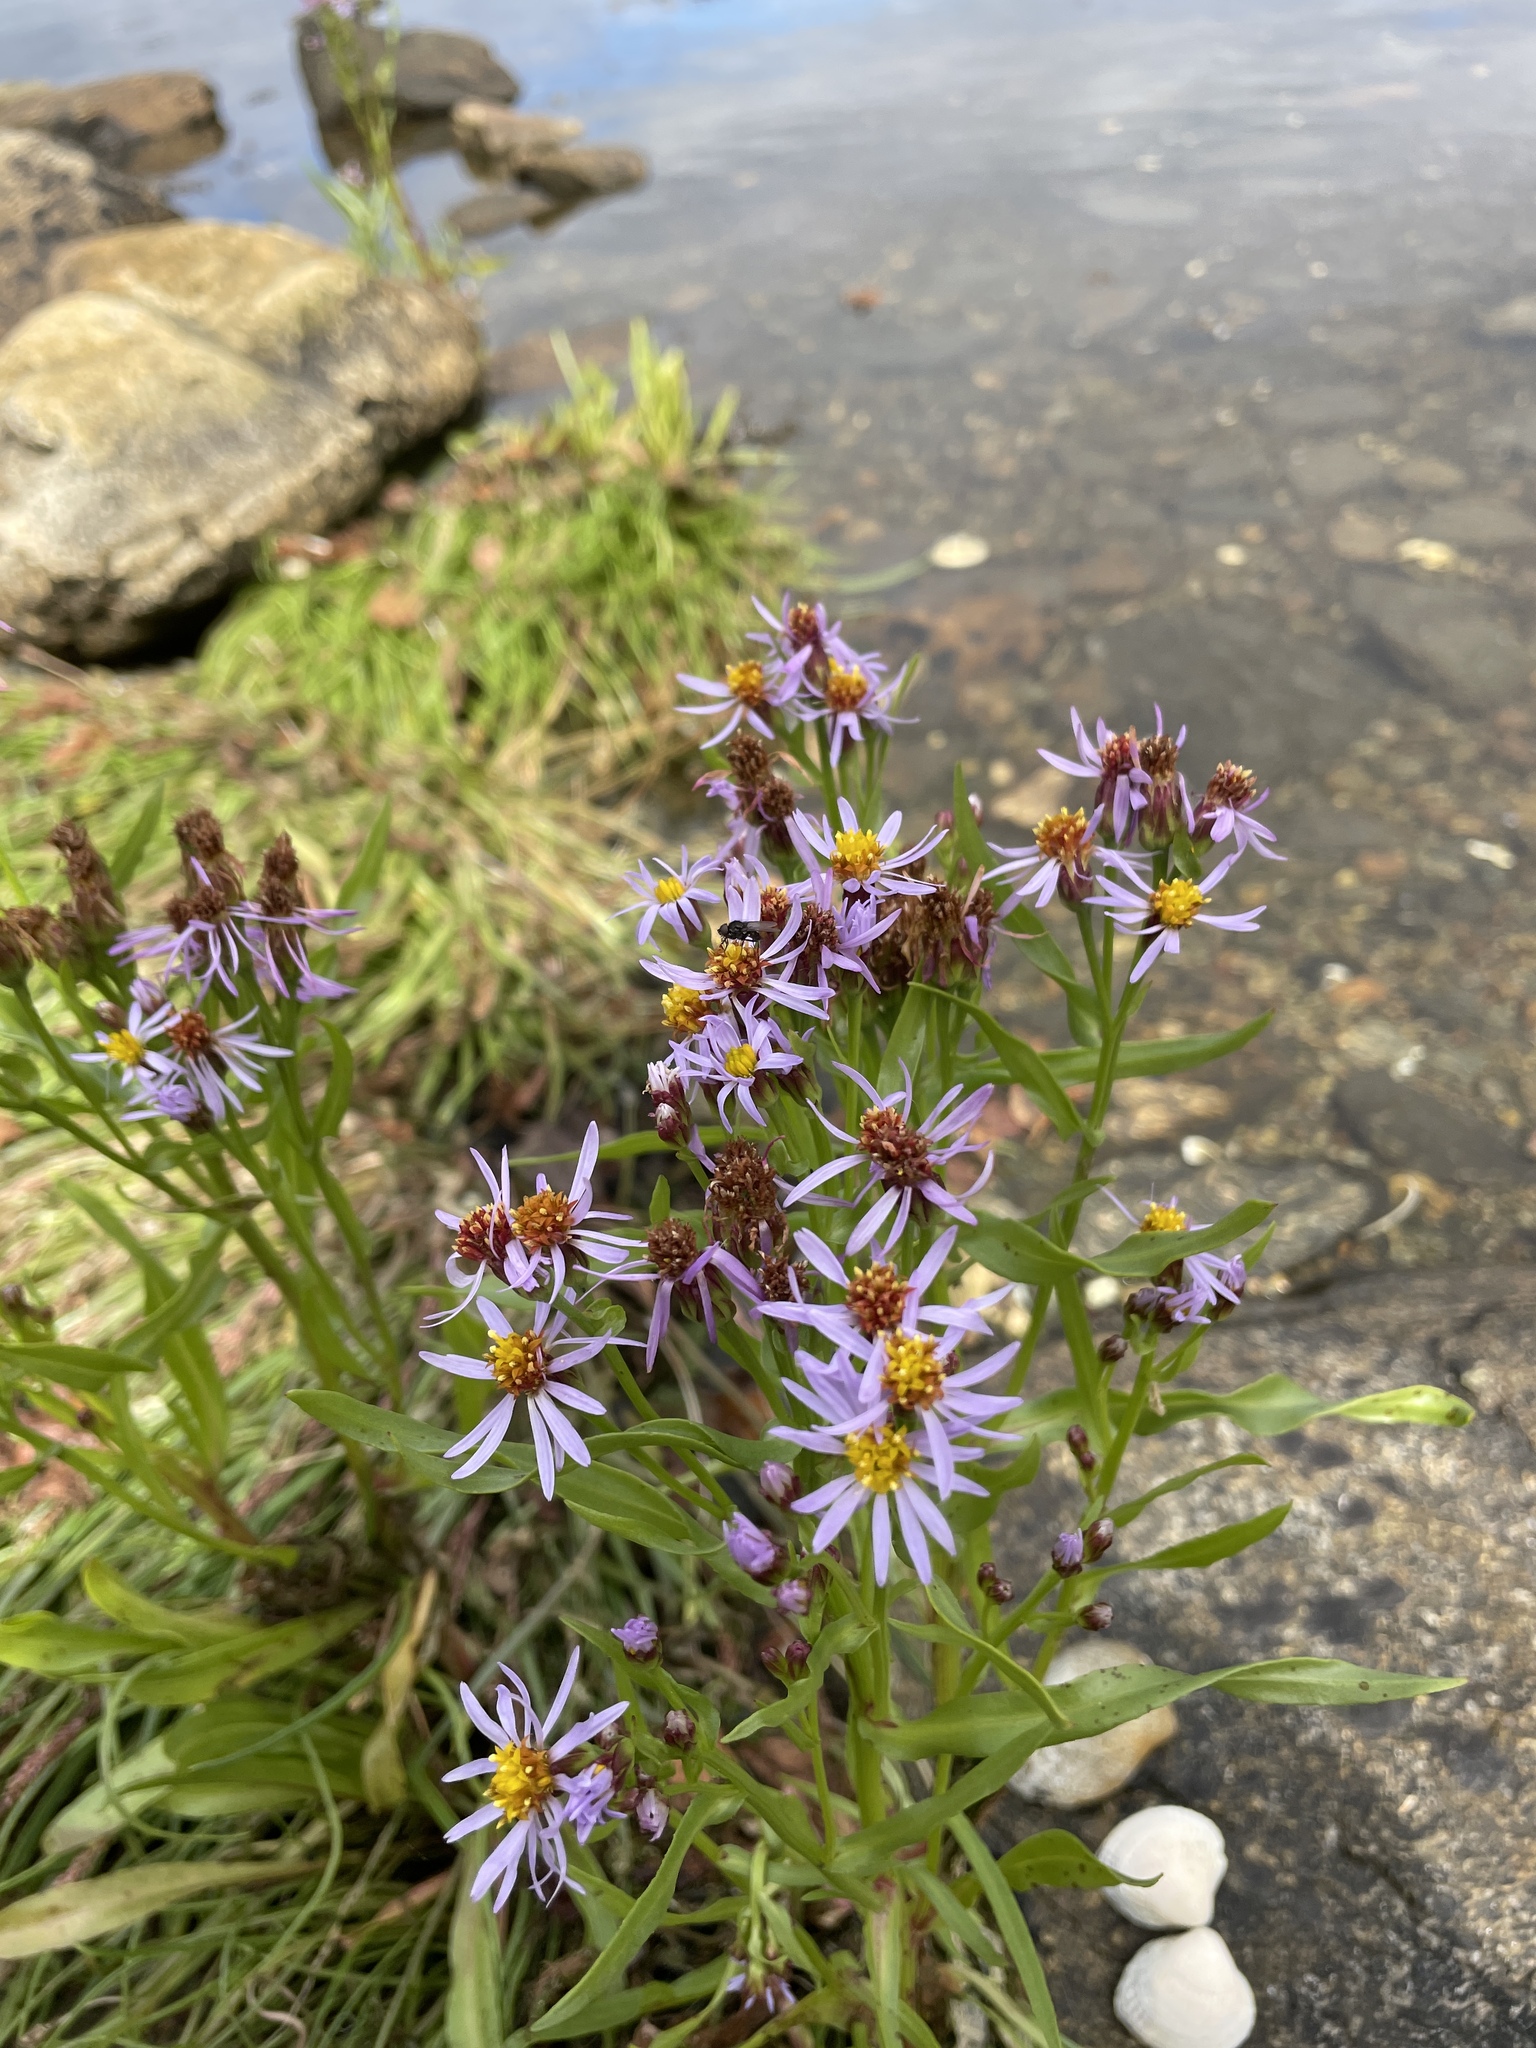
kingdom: Plantae
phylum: Tracheophyta
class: Magnoliopsida
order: Asterales
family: Asteraceae
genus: Tripolium
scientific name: Tripolium pannonicum
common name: Sea aster
